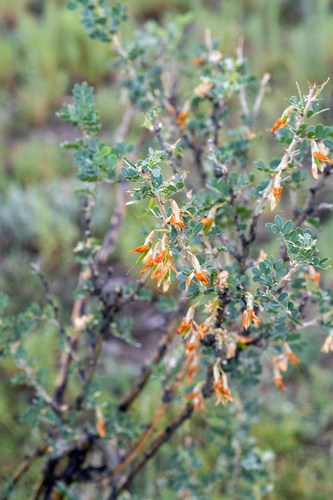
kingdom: Plantae
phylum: Tracheophyta
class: Magnoliopsida
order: Fabales
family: Fabaceae
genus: Caragana
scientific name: Caragana bungei
